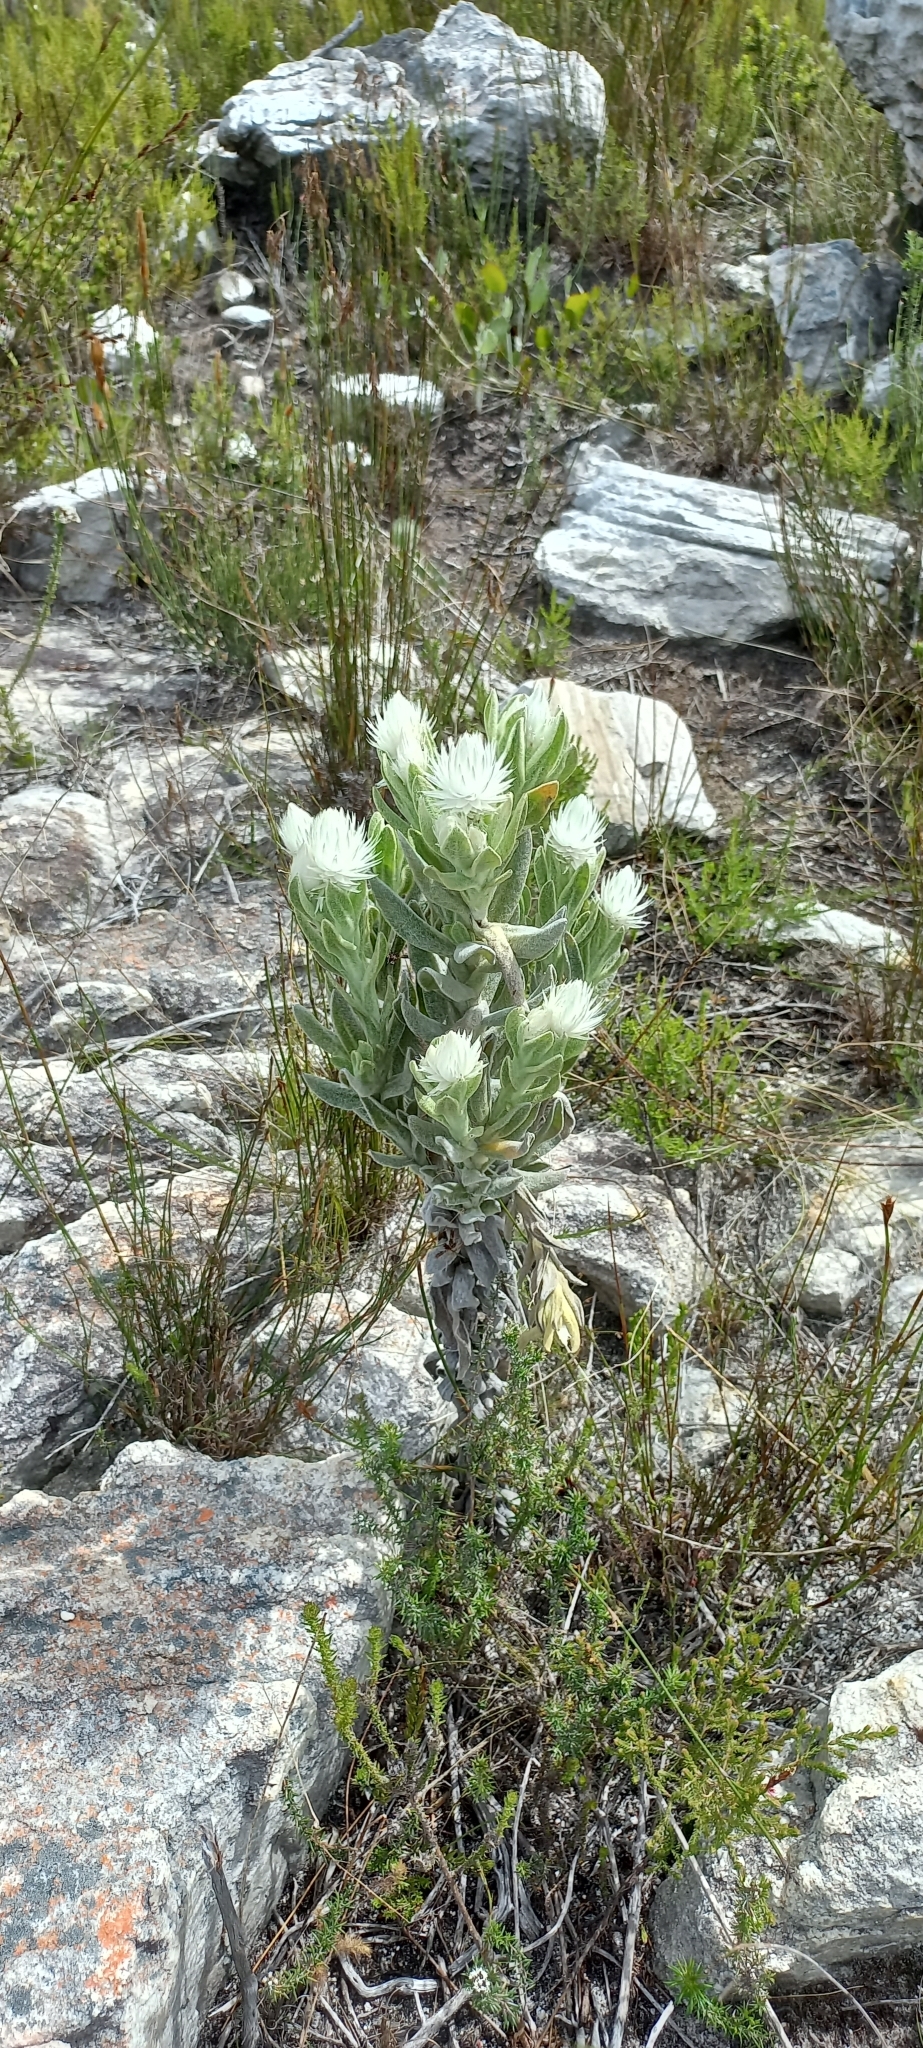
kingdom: Plantae
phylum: Tracheophyta
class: Magnoliopsida
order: Asterales
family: Asteraceae
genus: Syncarpha
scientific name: Syncarpha vestita
